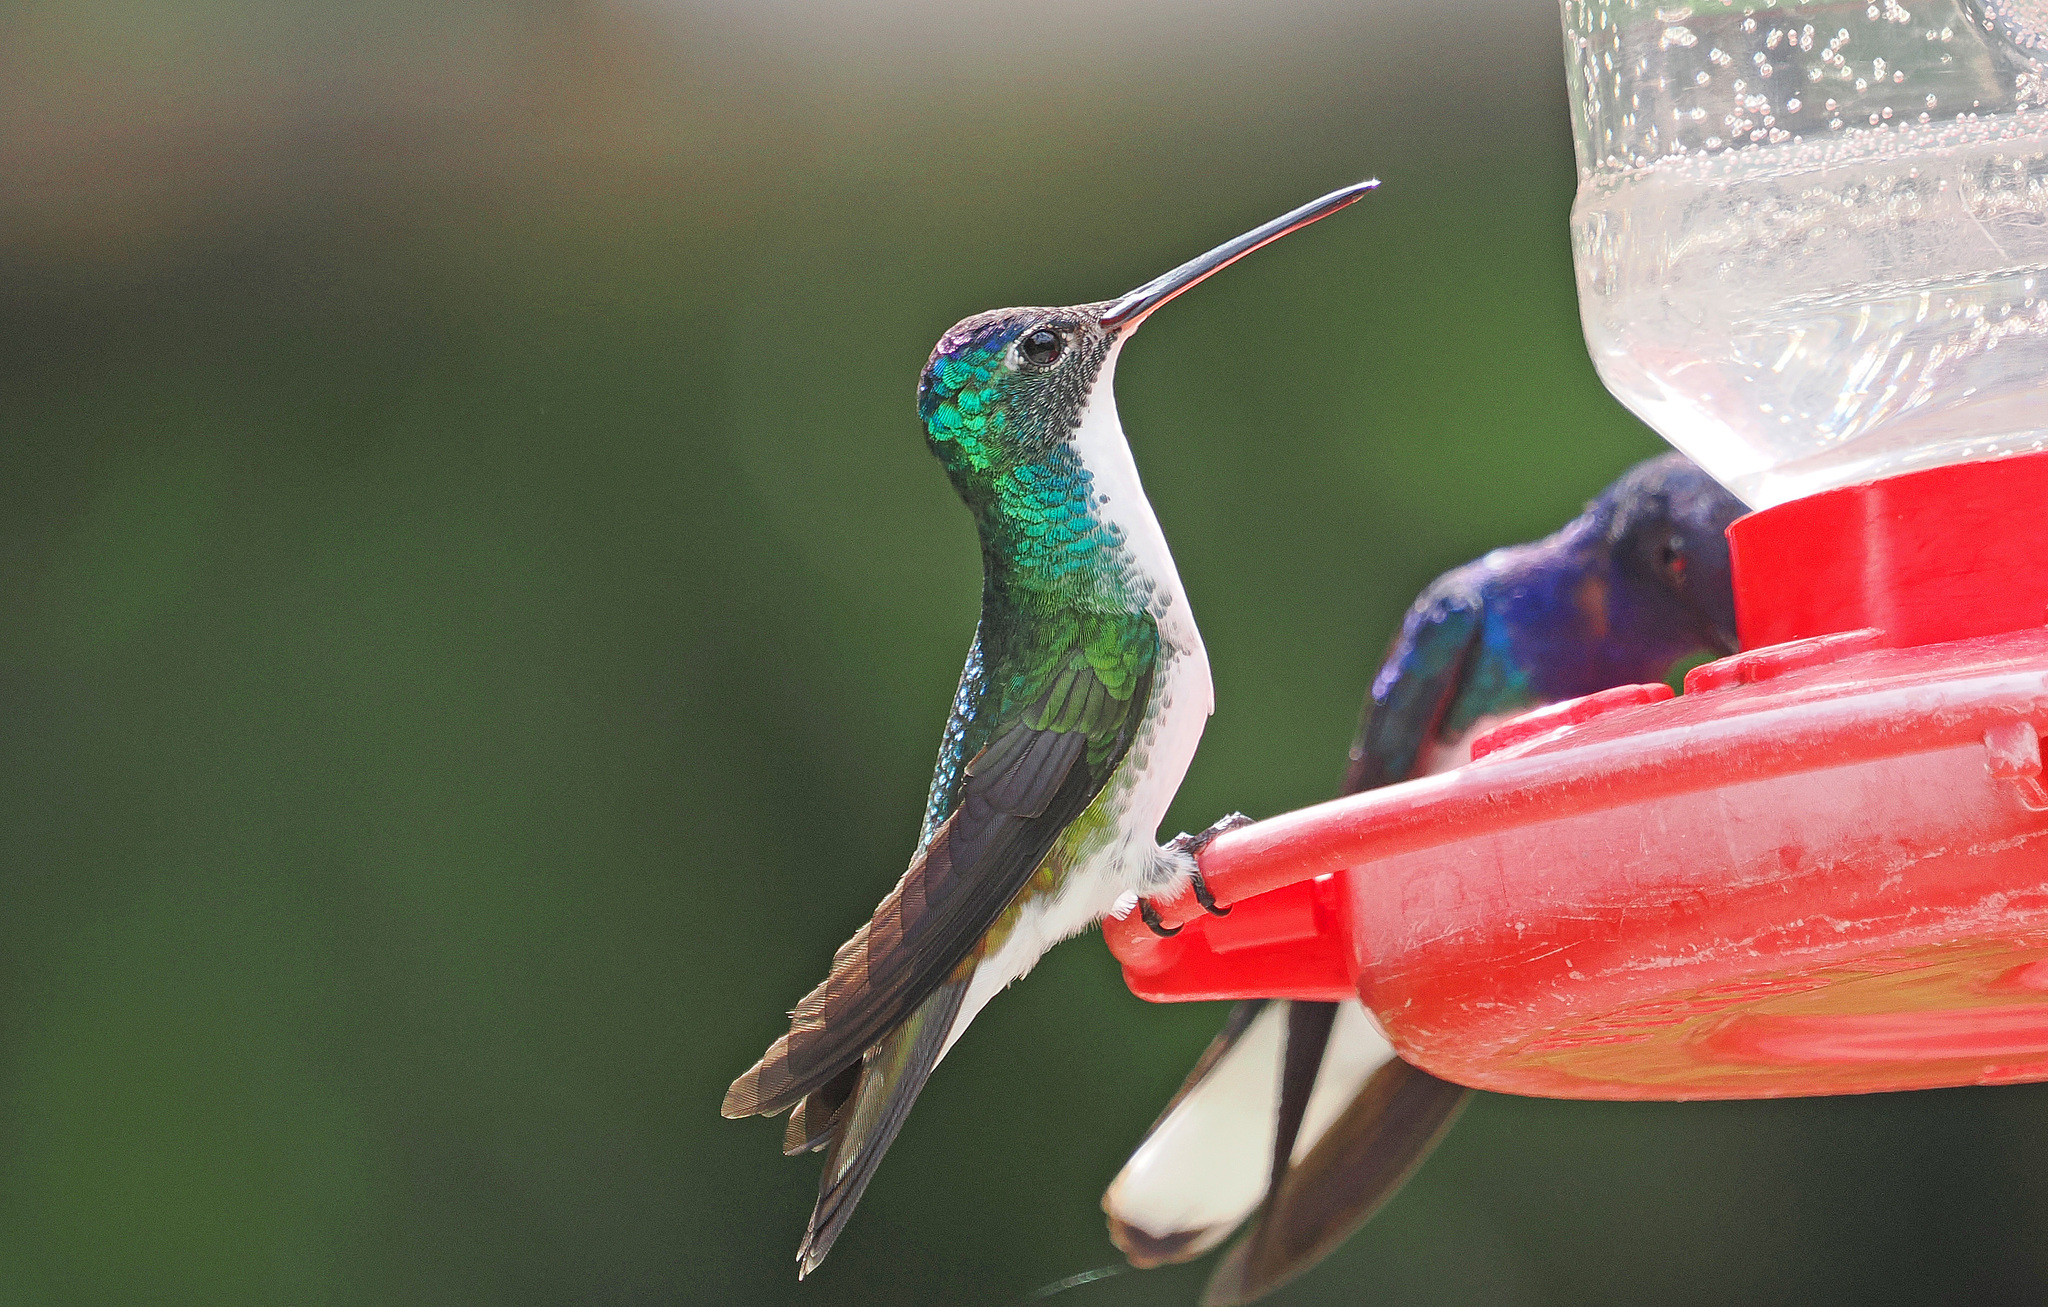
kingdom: Animalia
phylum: Chordata
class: Aves
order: Apodiformes
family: Trochilidae
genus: Uranomitra
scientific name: Uranomitra franciae
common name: Andean emerald
